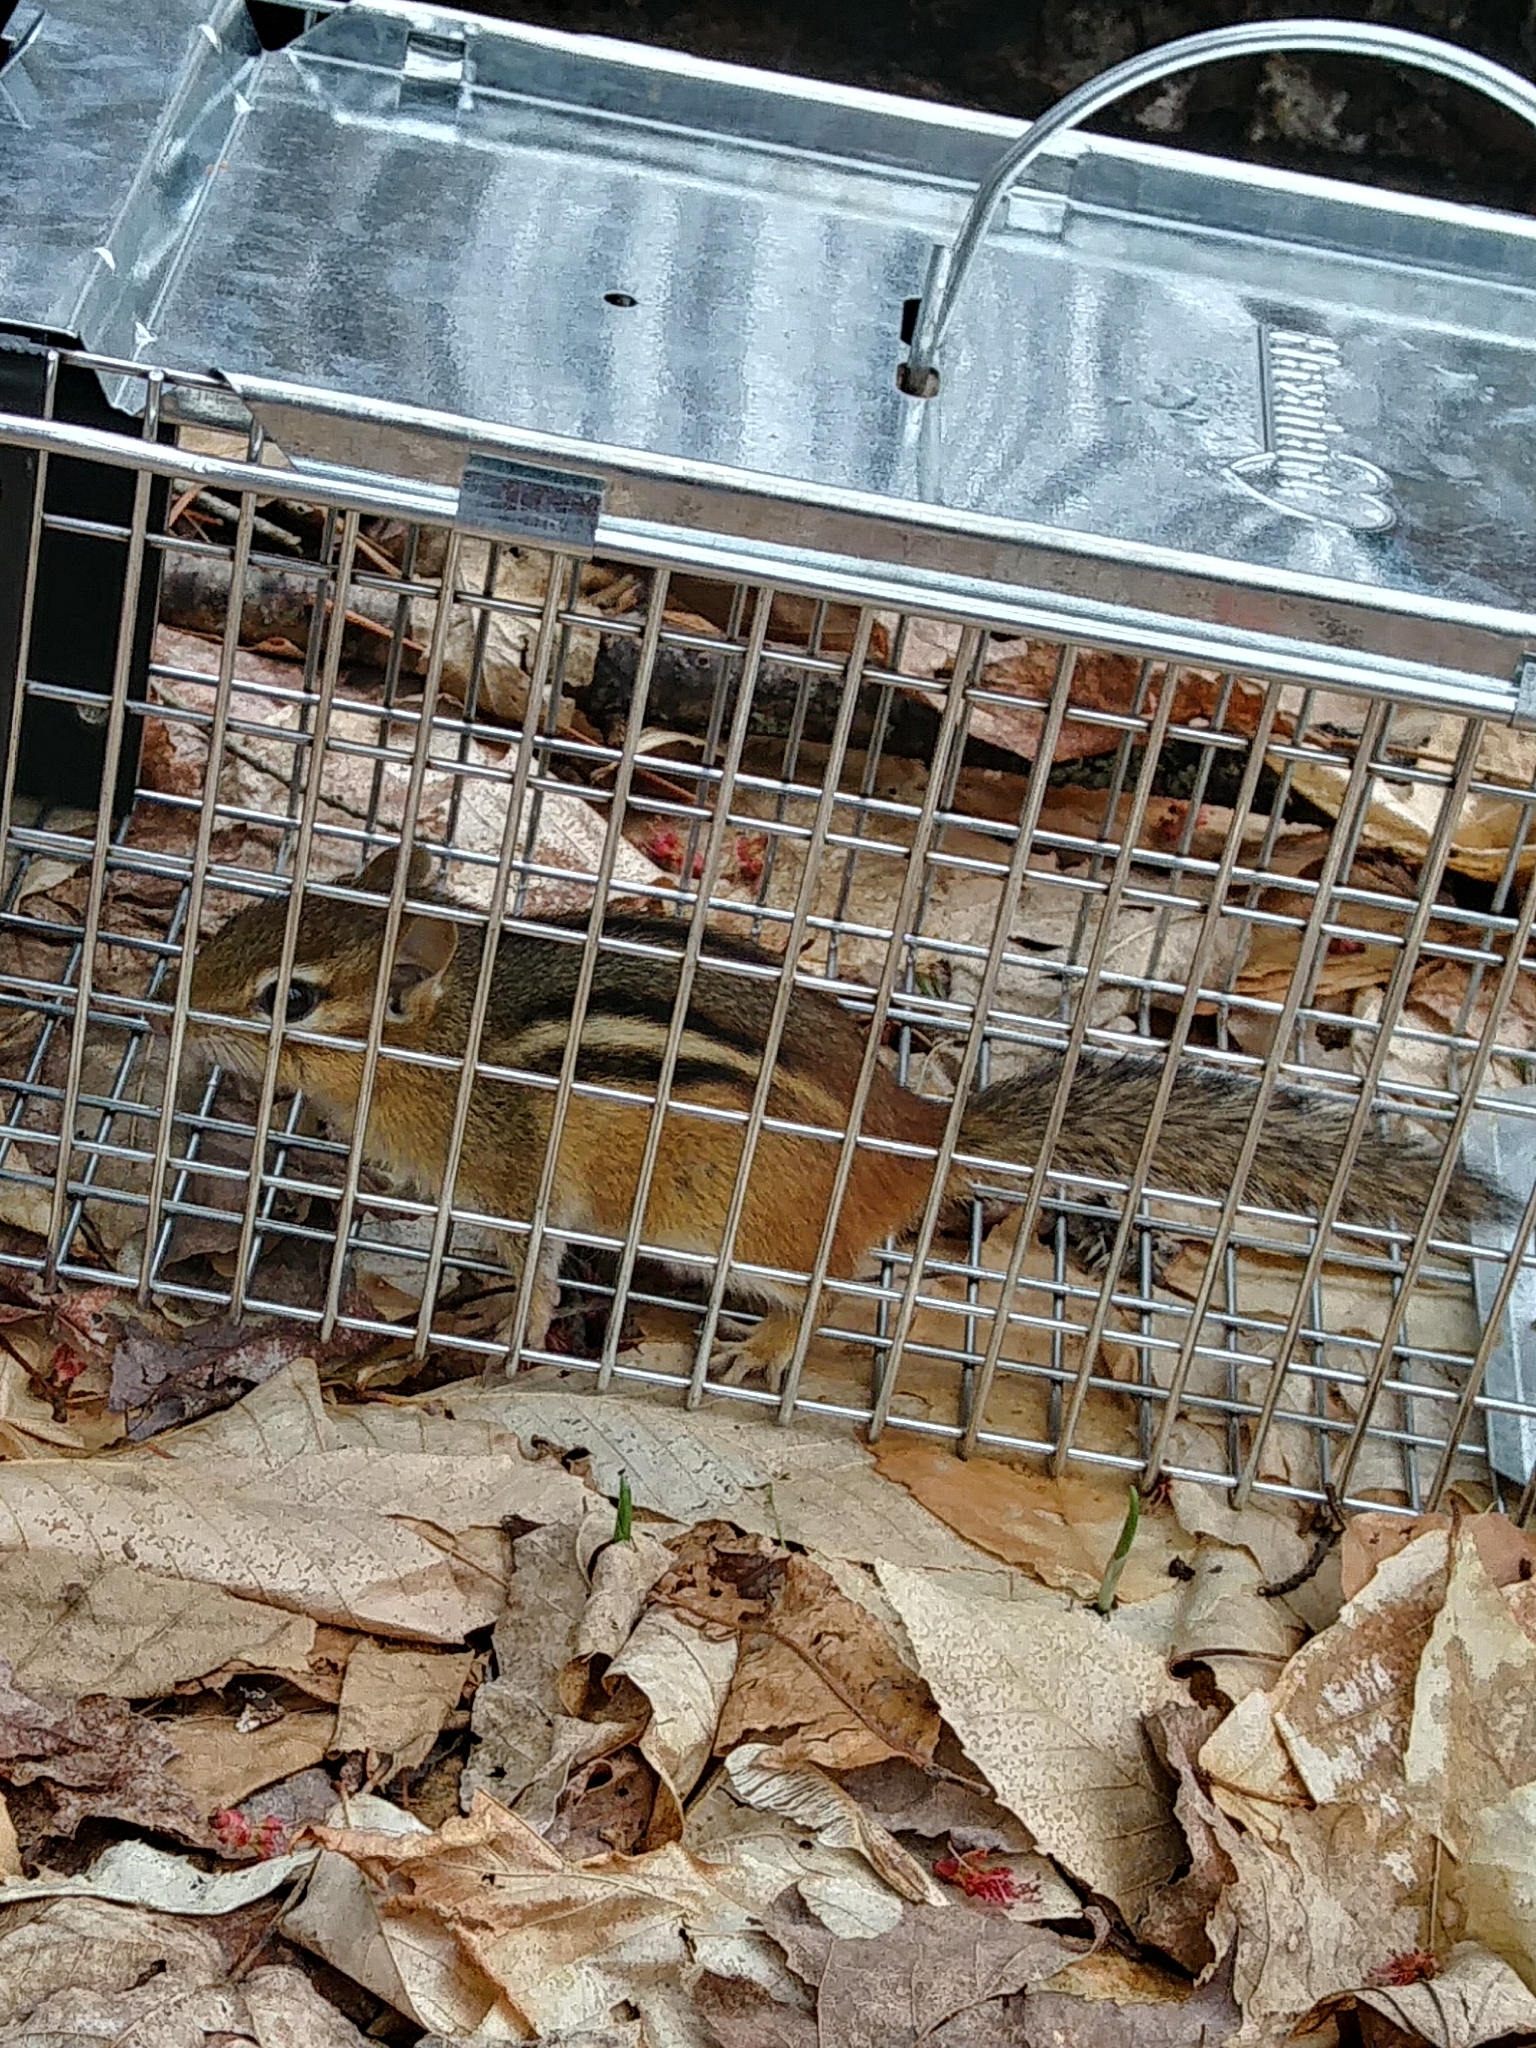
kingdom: Animalia
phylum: Chordata
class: Mammalia
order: Rodentia
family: Sciuridae
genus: Tamias
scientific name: Tamias striatus
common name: Eastern chipmunk
